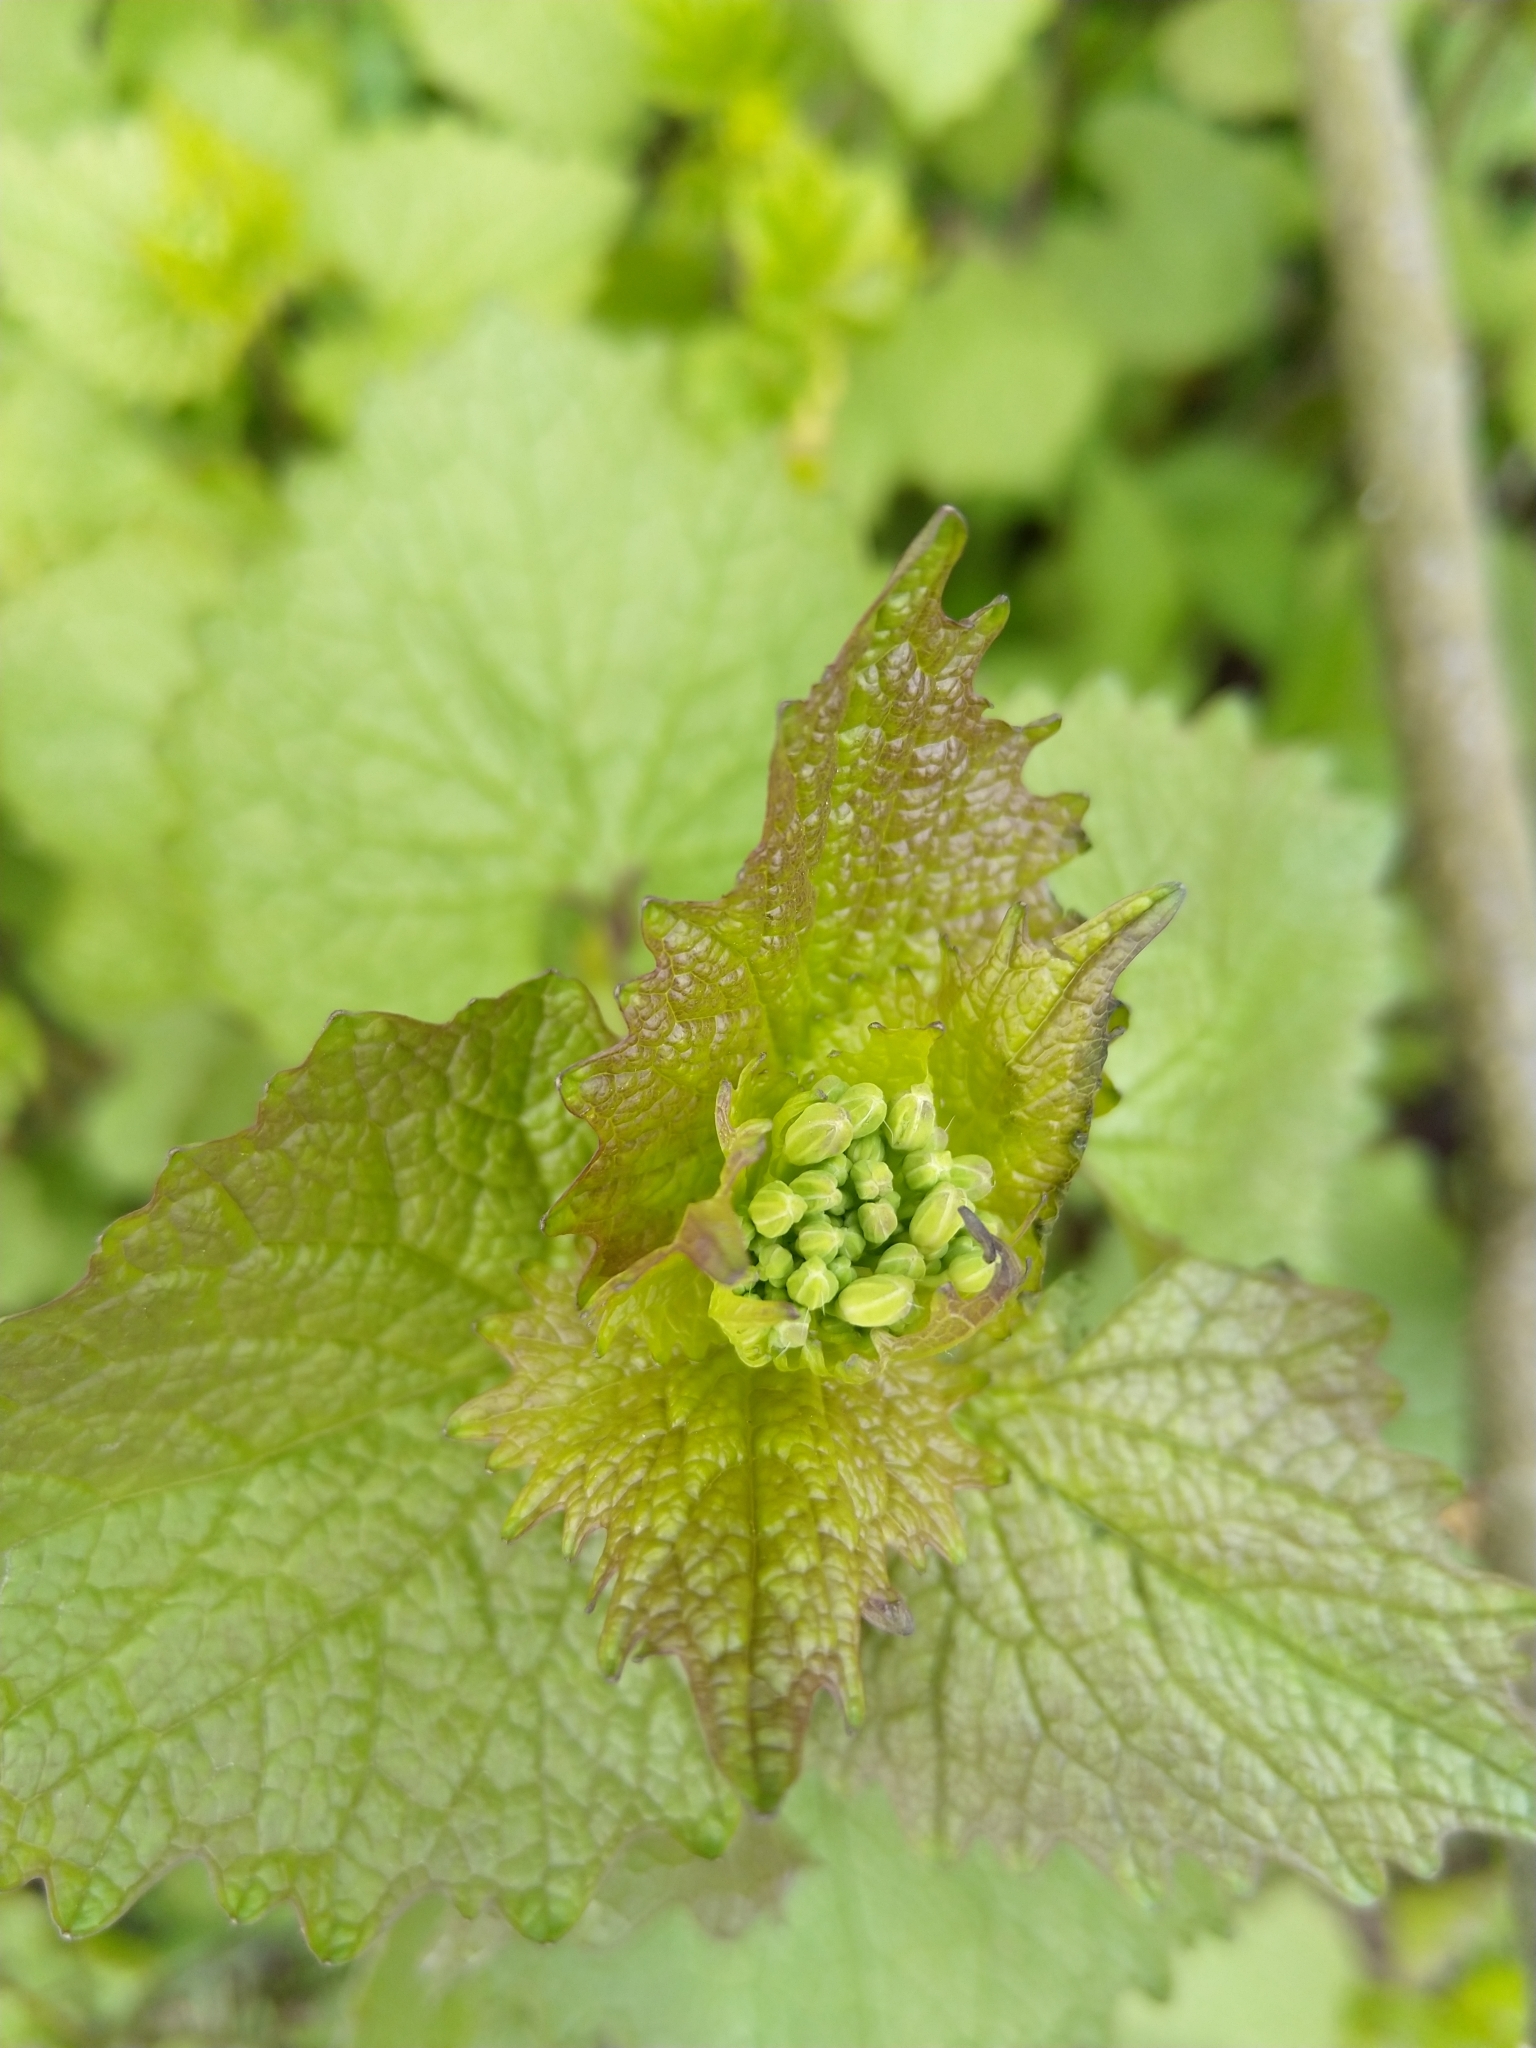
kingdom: Plantae
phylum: Tracheophyta
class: Magnoliopsida
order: Brassicales
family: Brassicaceae
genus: Alliaria
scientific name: Alliaria petiolata
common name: Garlic mustard
